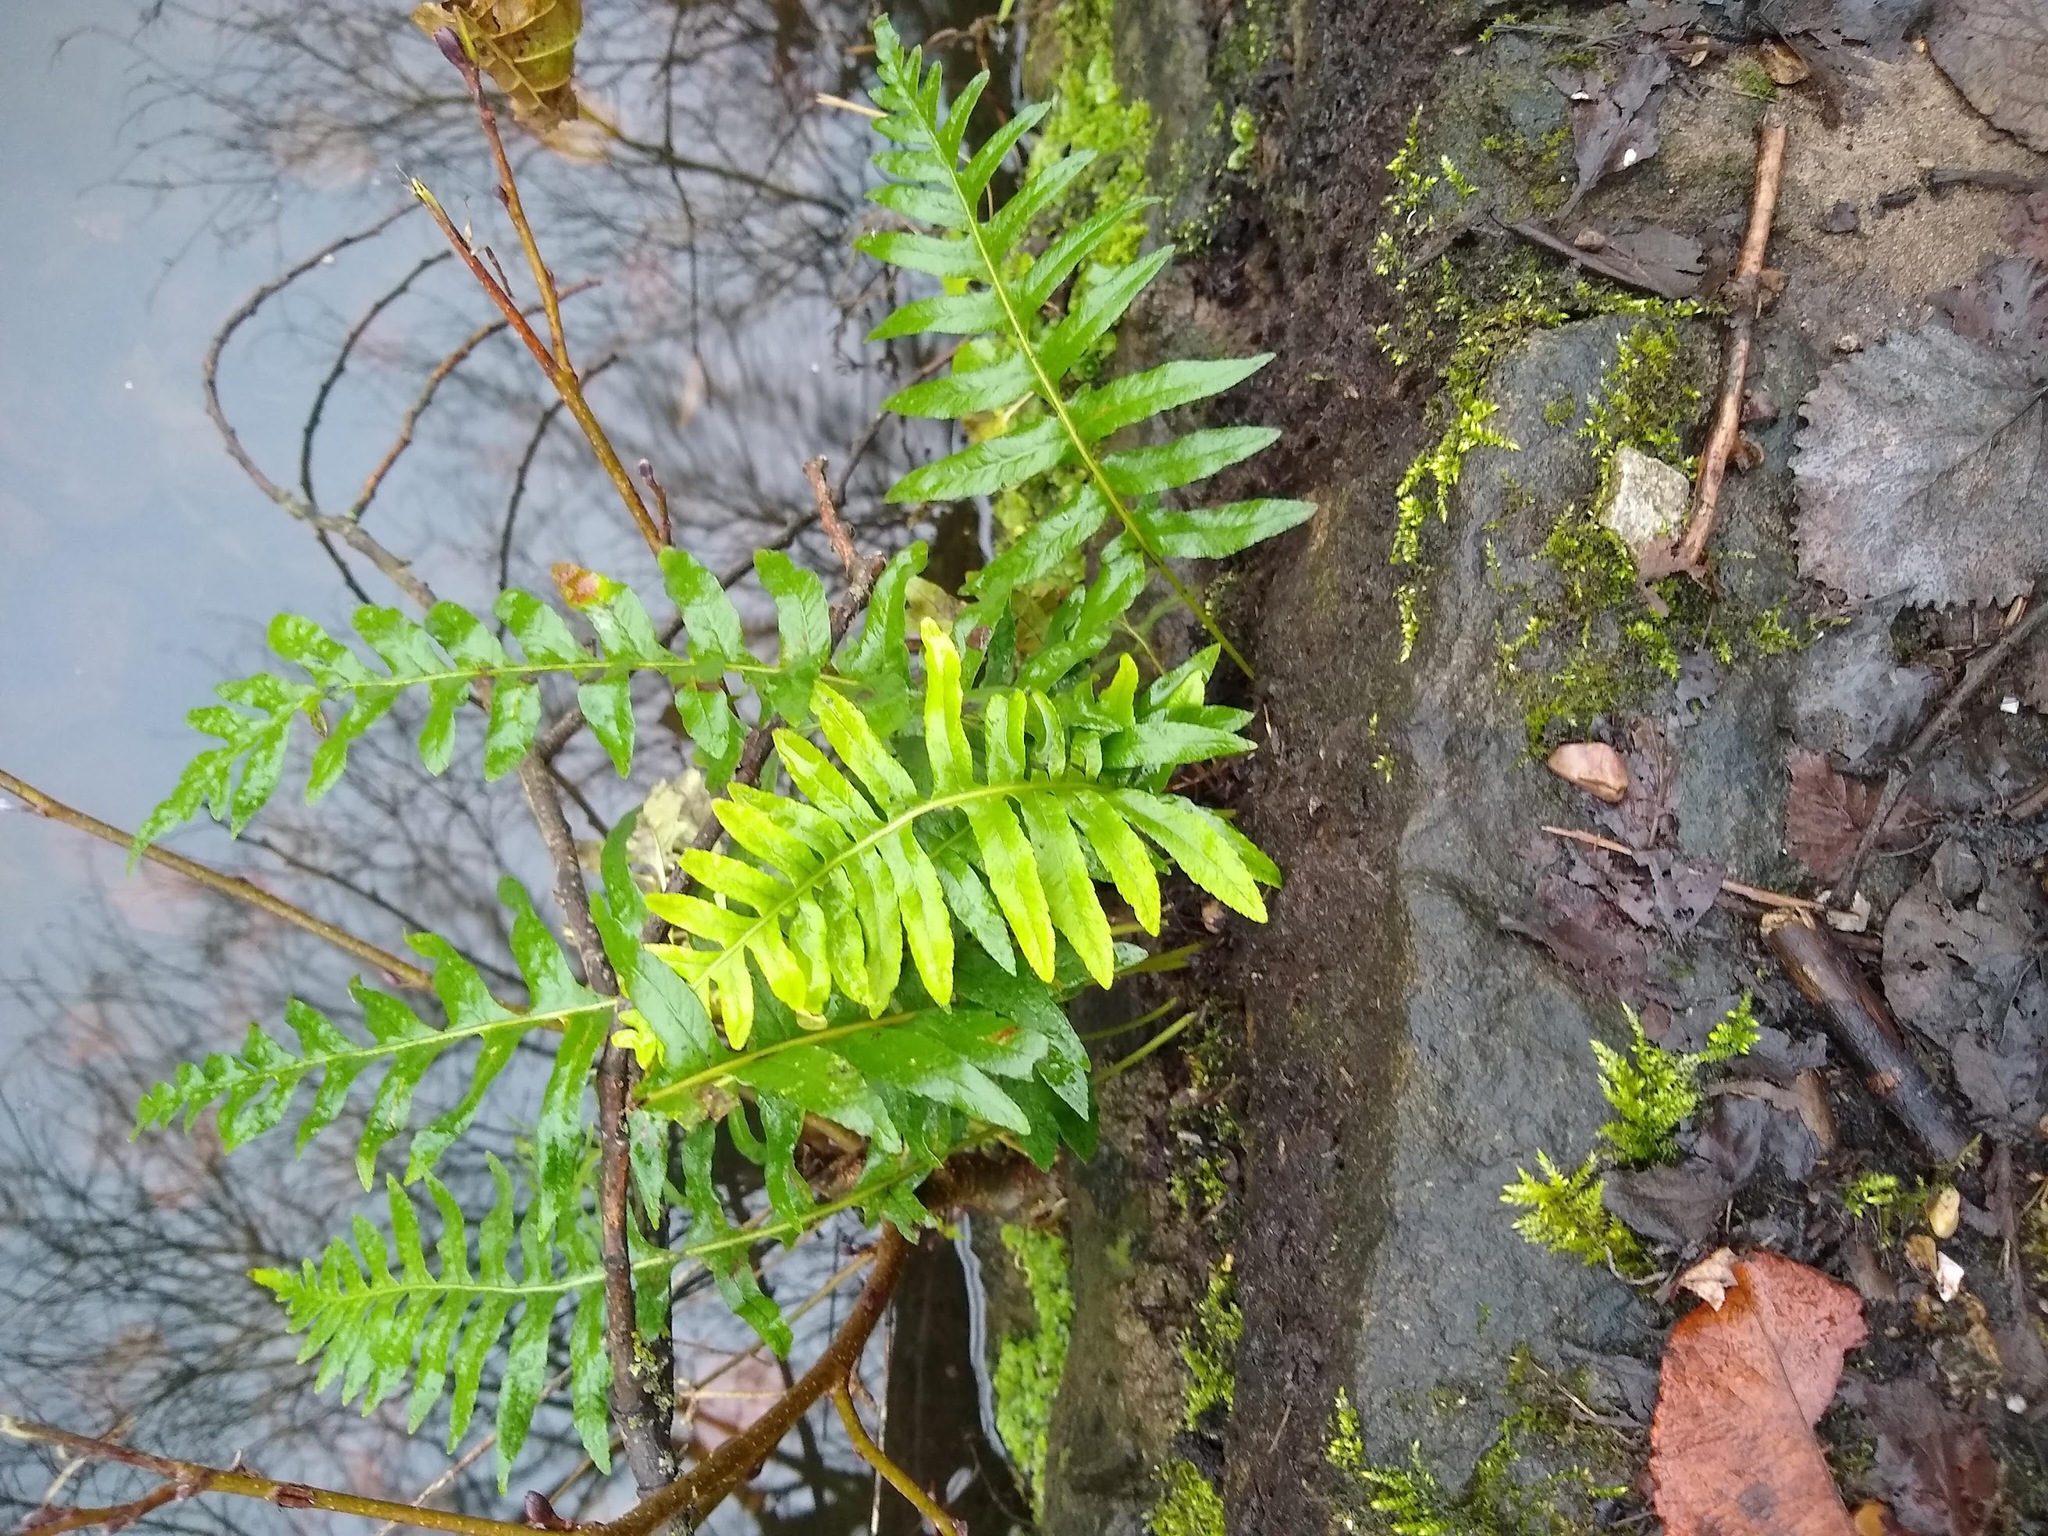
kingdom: Plantae
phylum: Tracheophyta
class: Polypodiopsida
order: Polypodiales
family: Polypodiaceae
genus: Polypodium
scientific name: Polypodium interjectum
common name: Intermediate polypody
